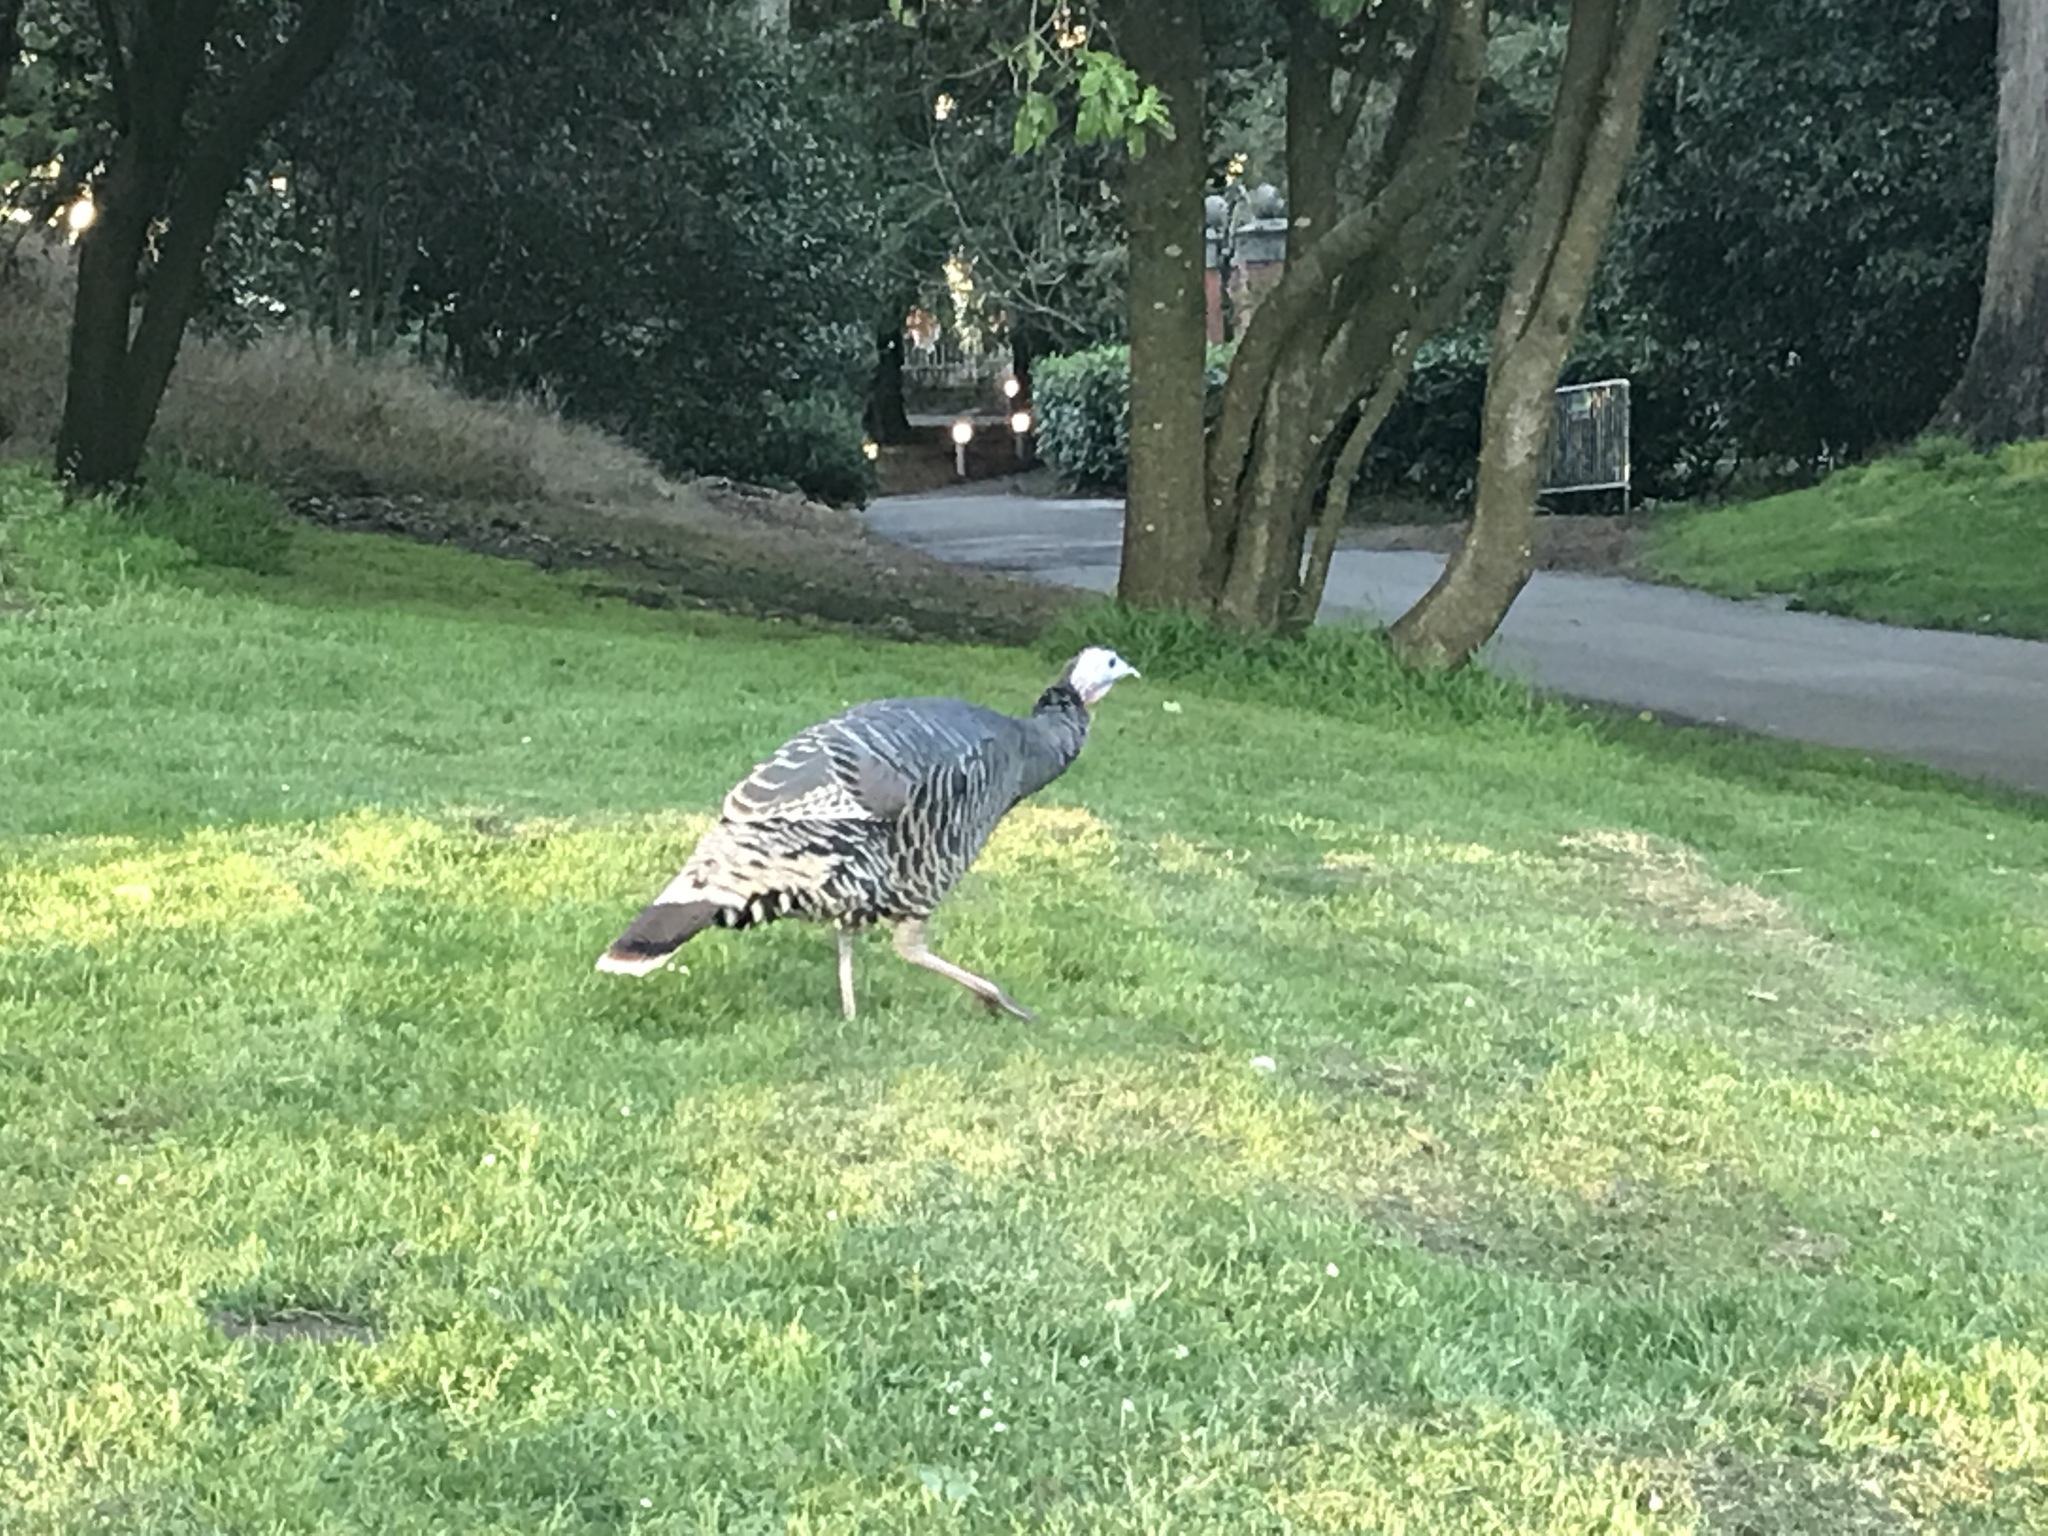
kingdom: Animalia
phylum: Chordata
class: Aves
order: Galliformes
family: Phasianidae
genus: Meleagris
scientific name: Meleagris gallopavo
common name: Wild turkey
